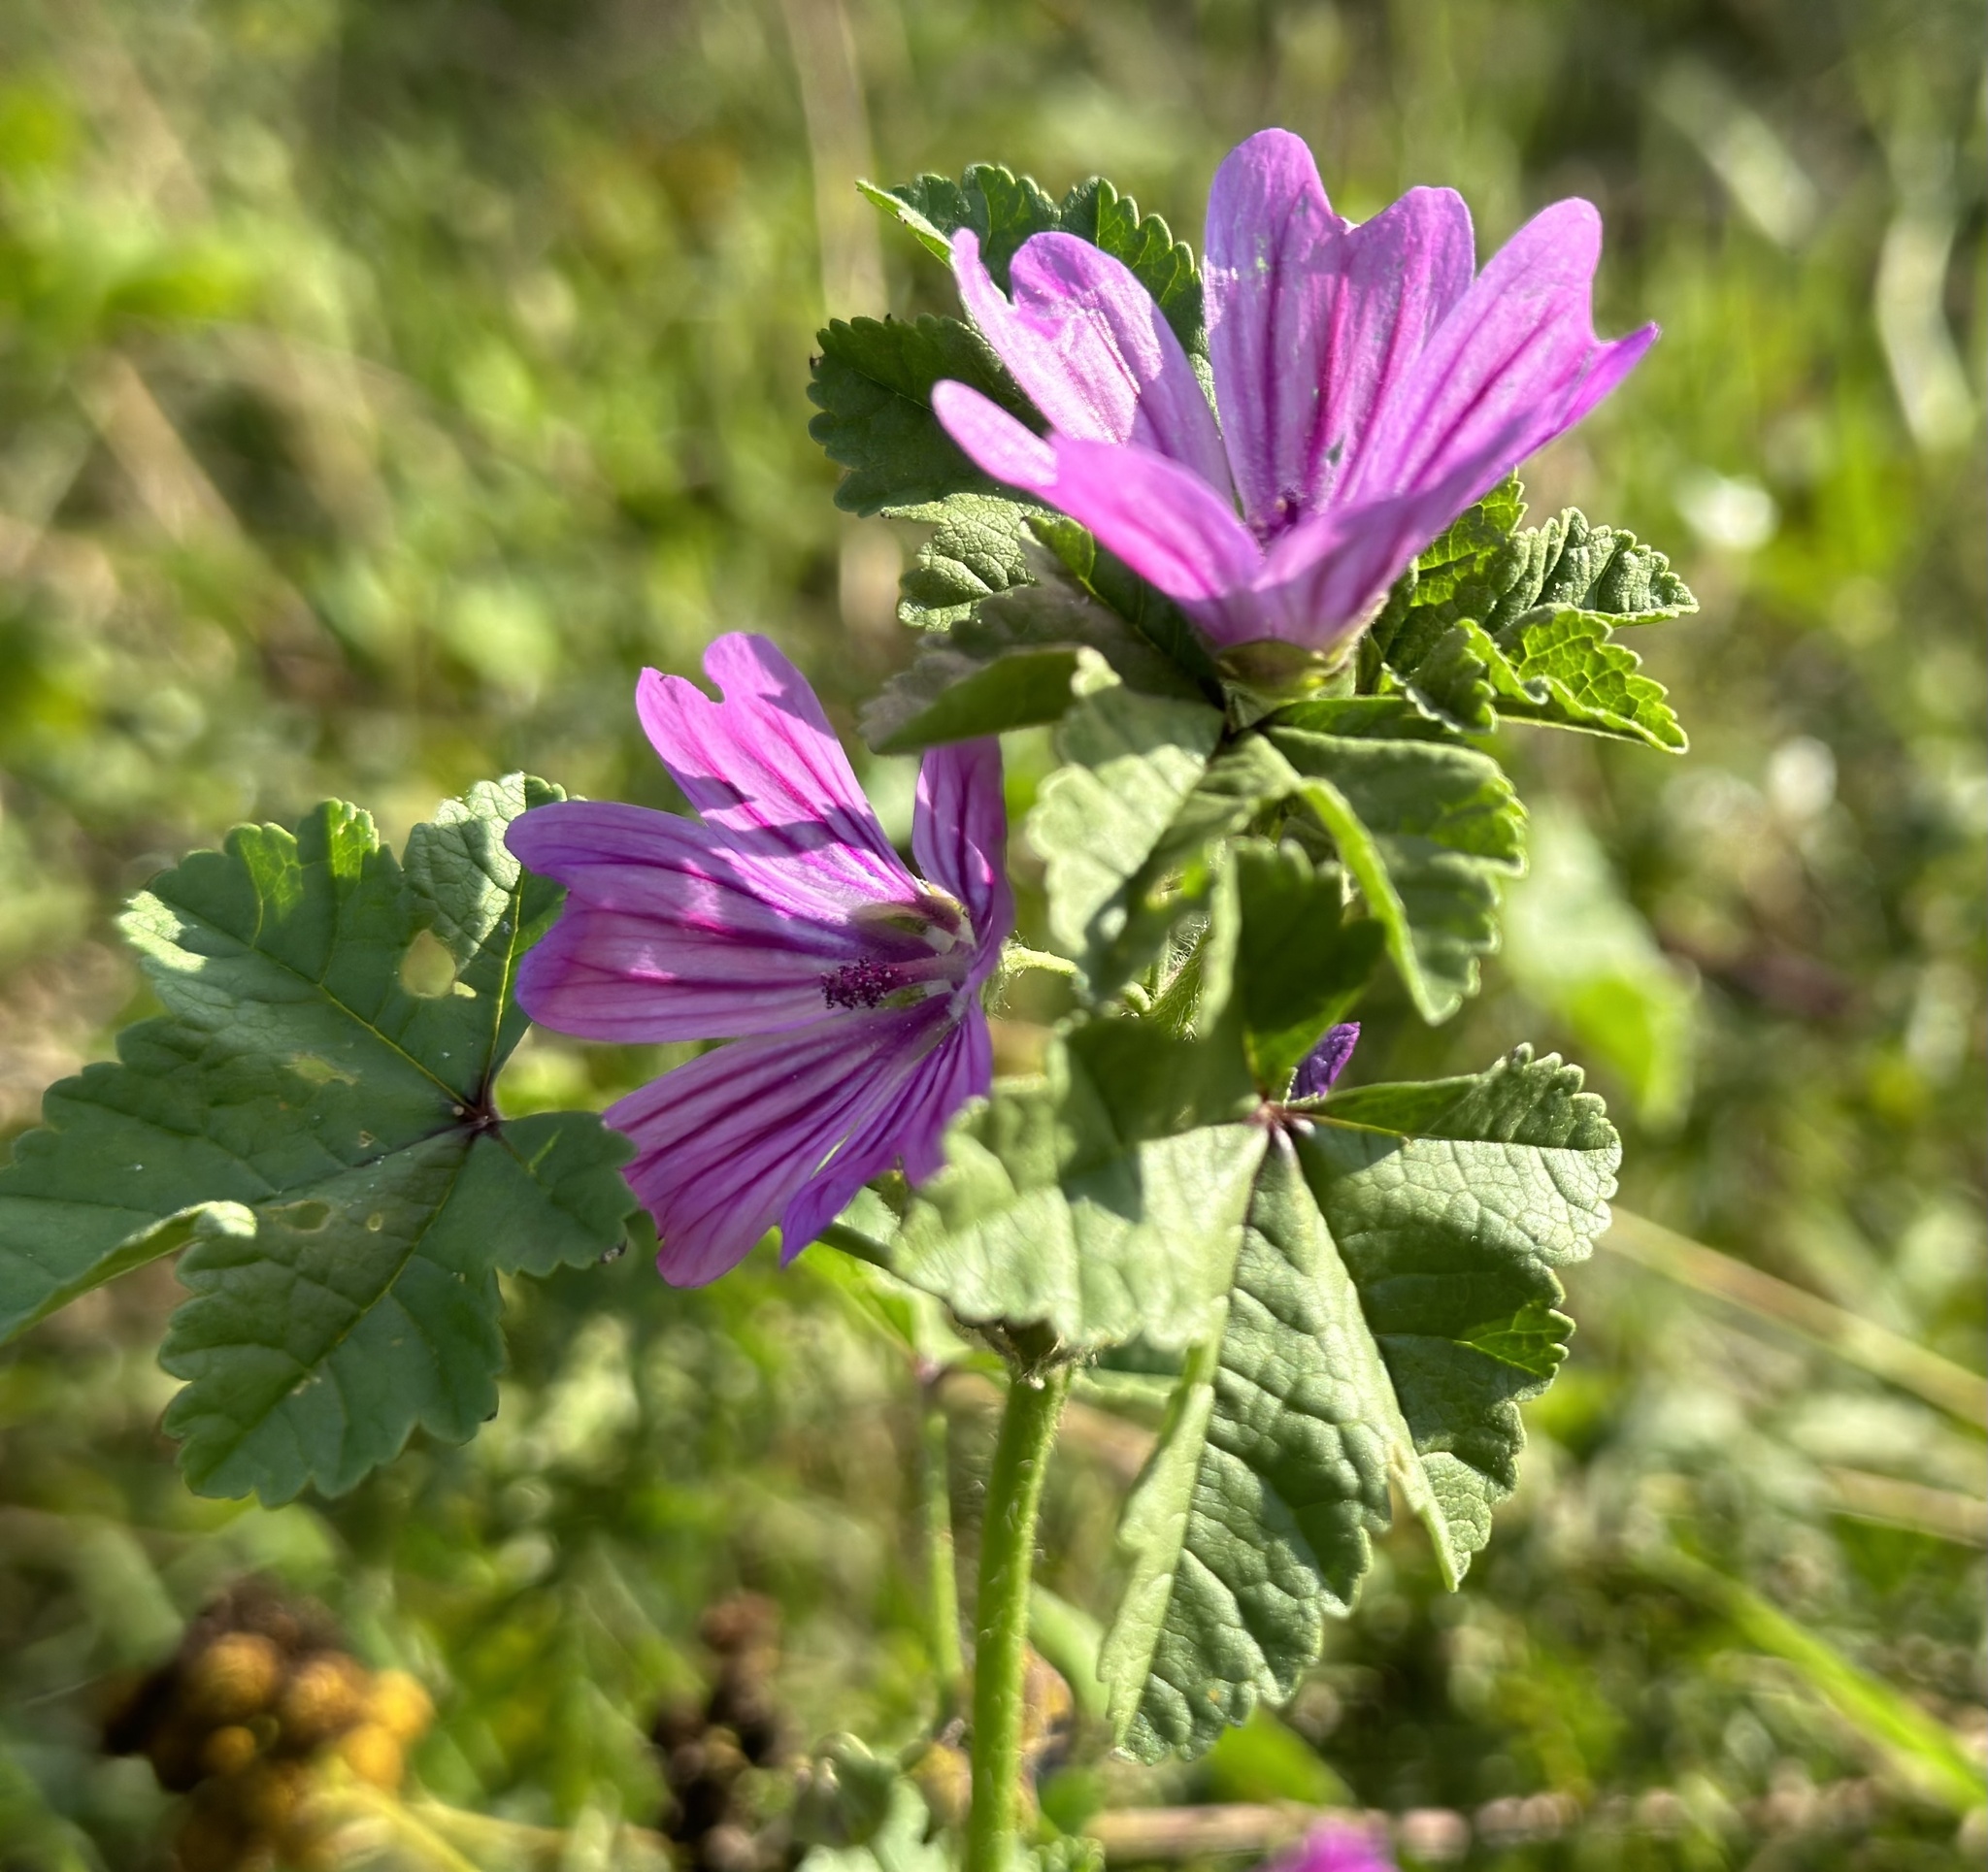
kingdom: Plantae
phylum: Tracheophyta
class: Magnoliopsida
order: Malvales
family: Malvaceae
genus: Malva
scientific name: Malva sylvestris
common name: Common mallow
